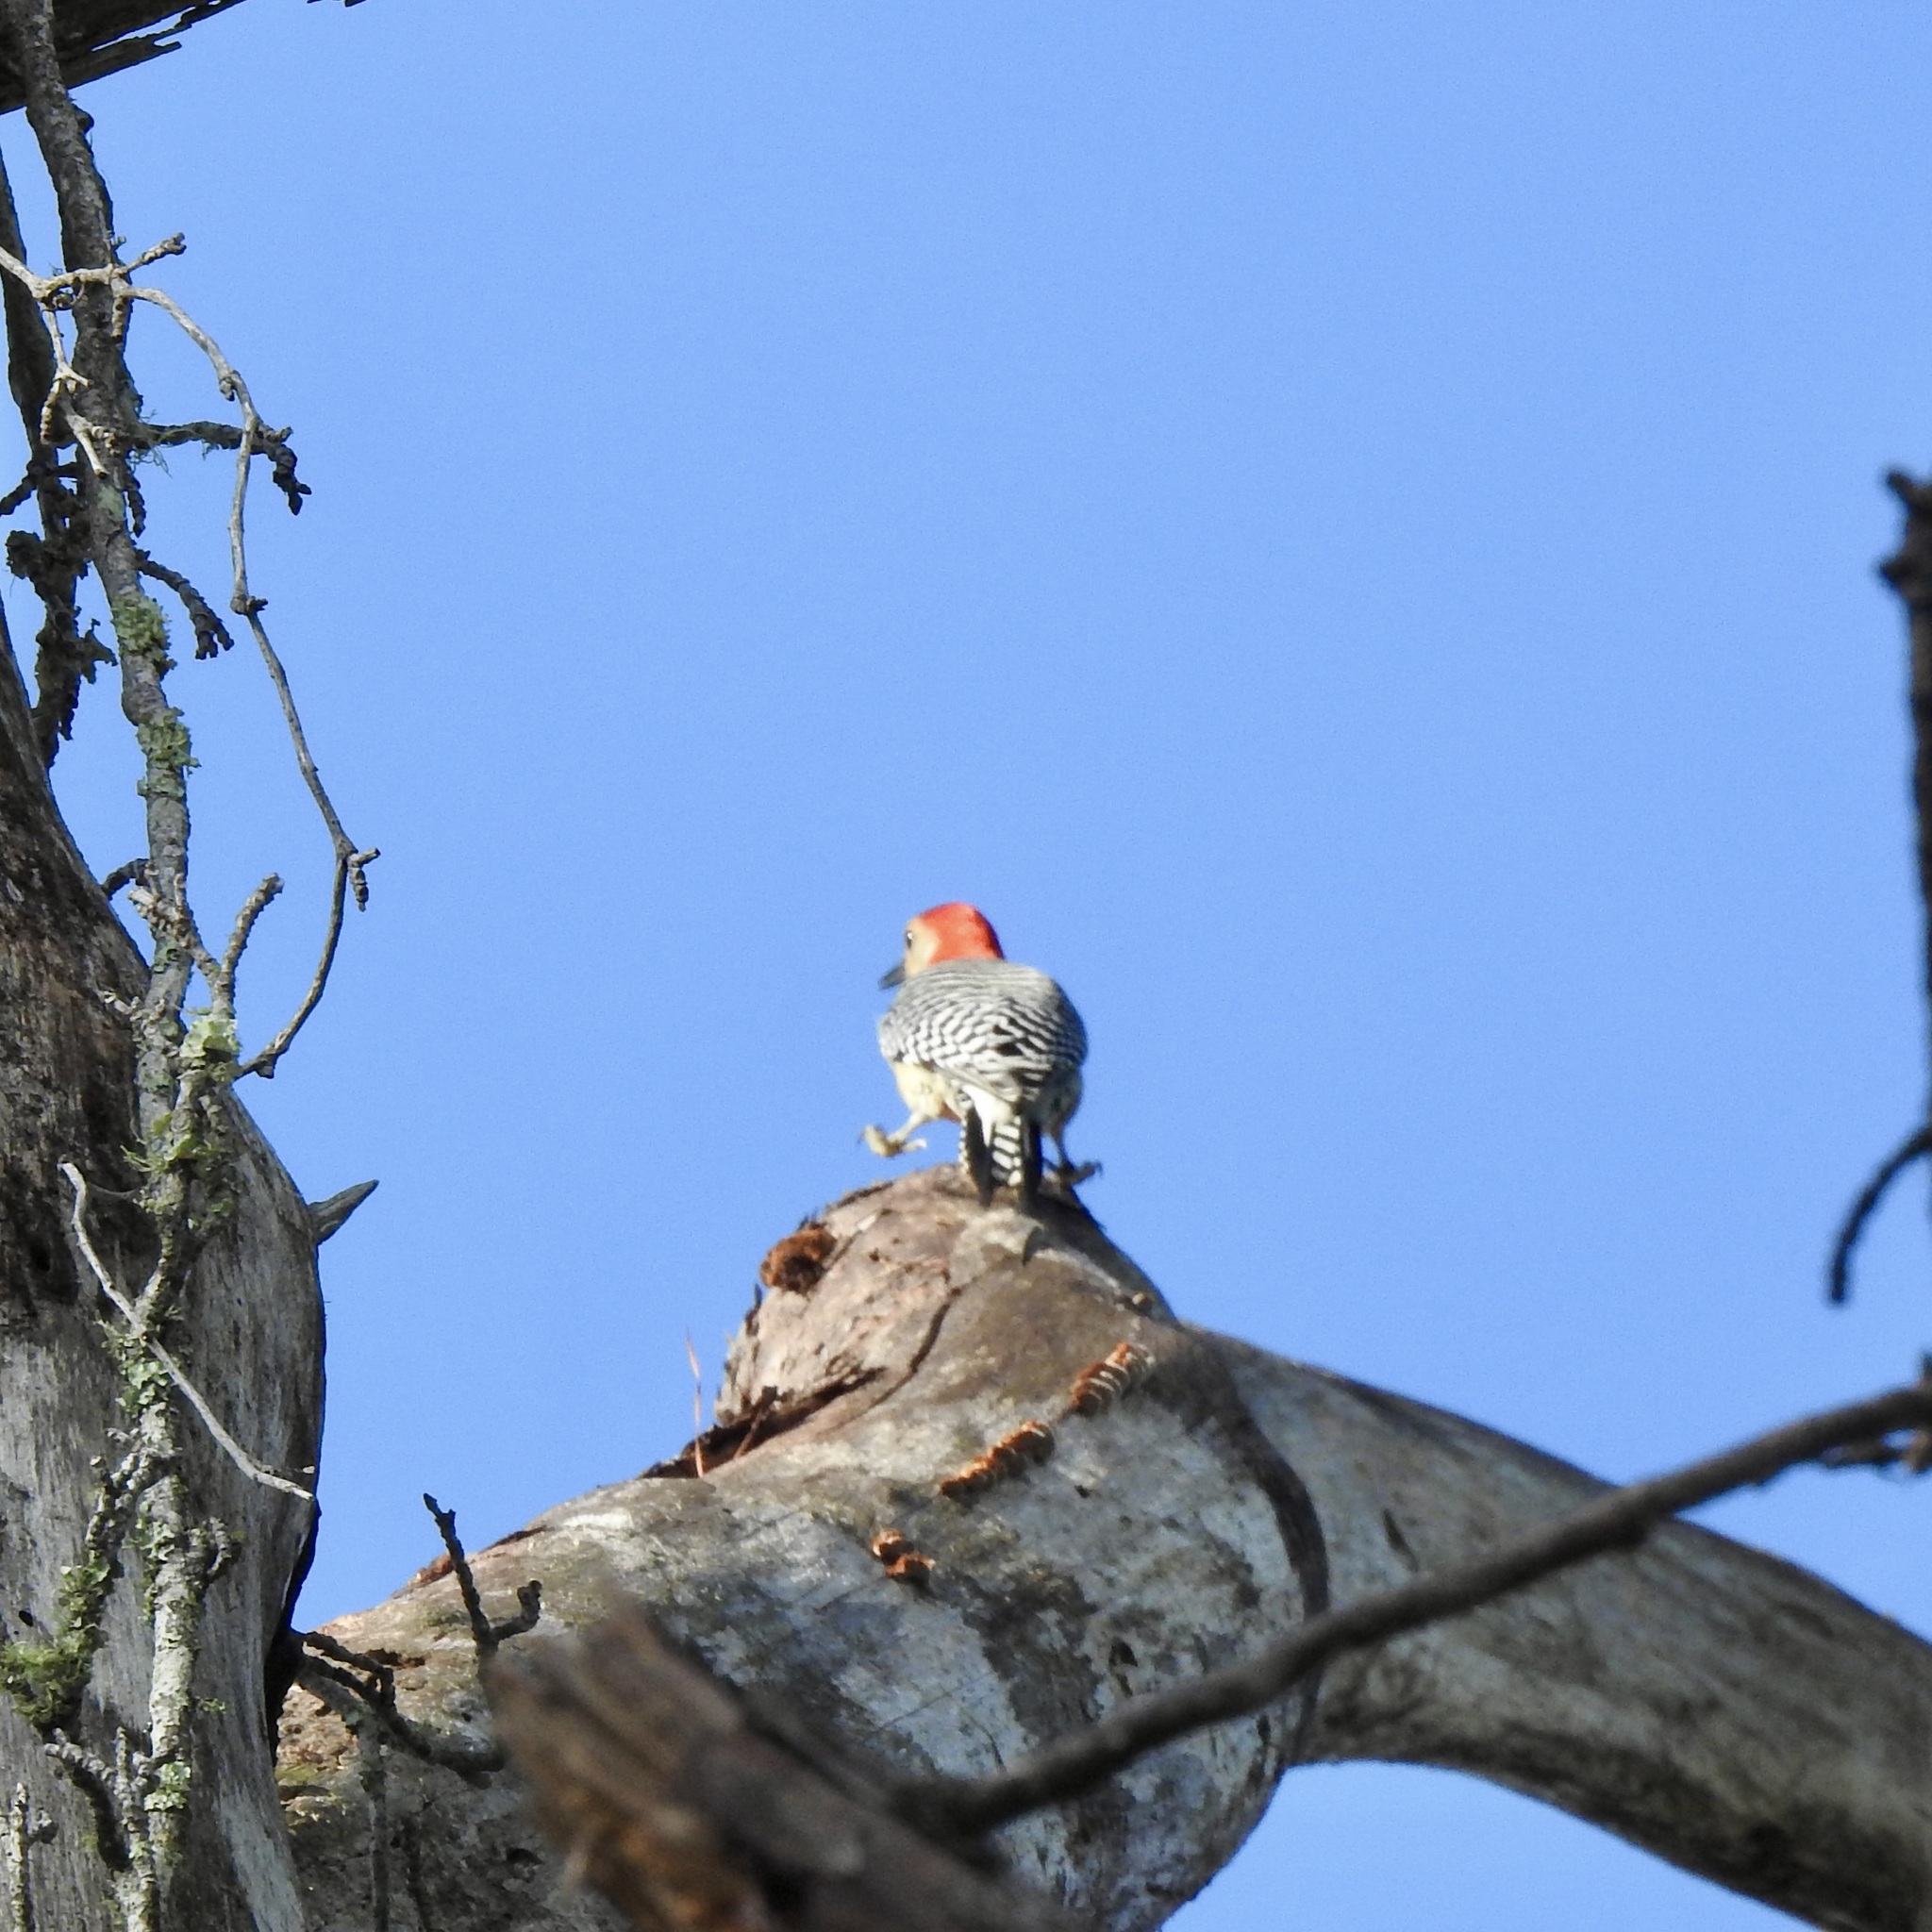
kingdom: Animalia
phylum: Chordata
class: Aves
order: Piciformes
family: Picidae
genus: Melanerpes
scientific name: Melanerpes carolinus
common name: Red-bellied woodpecker
